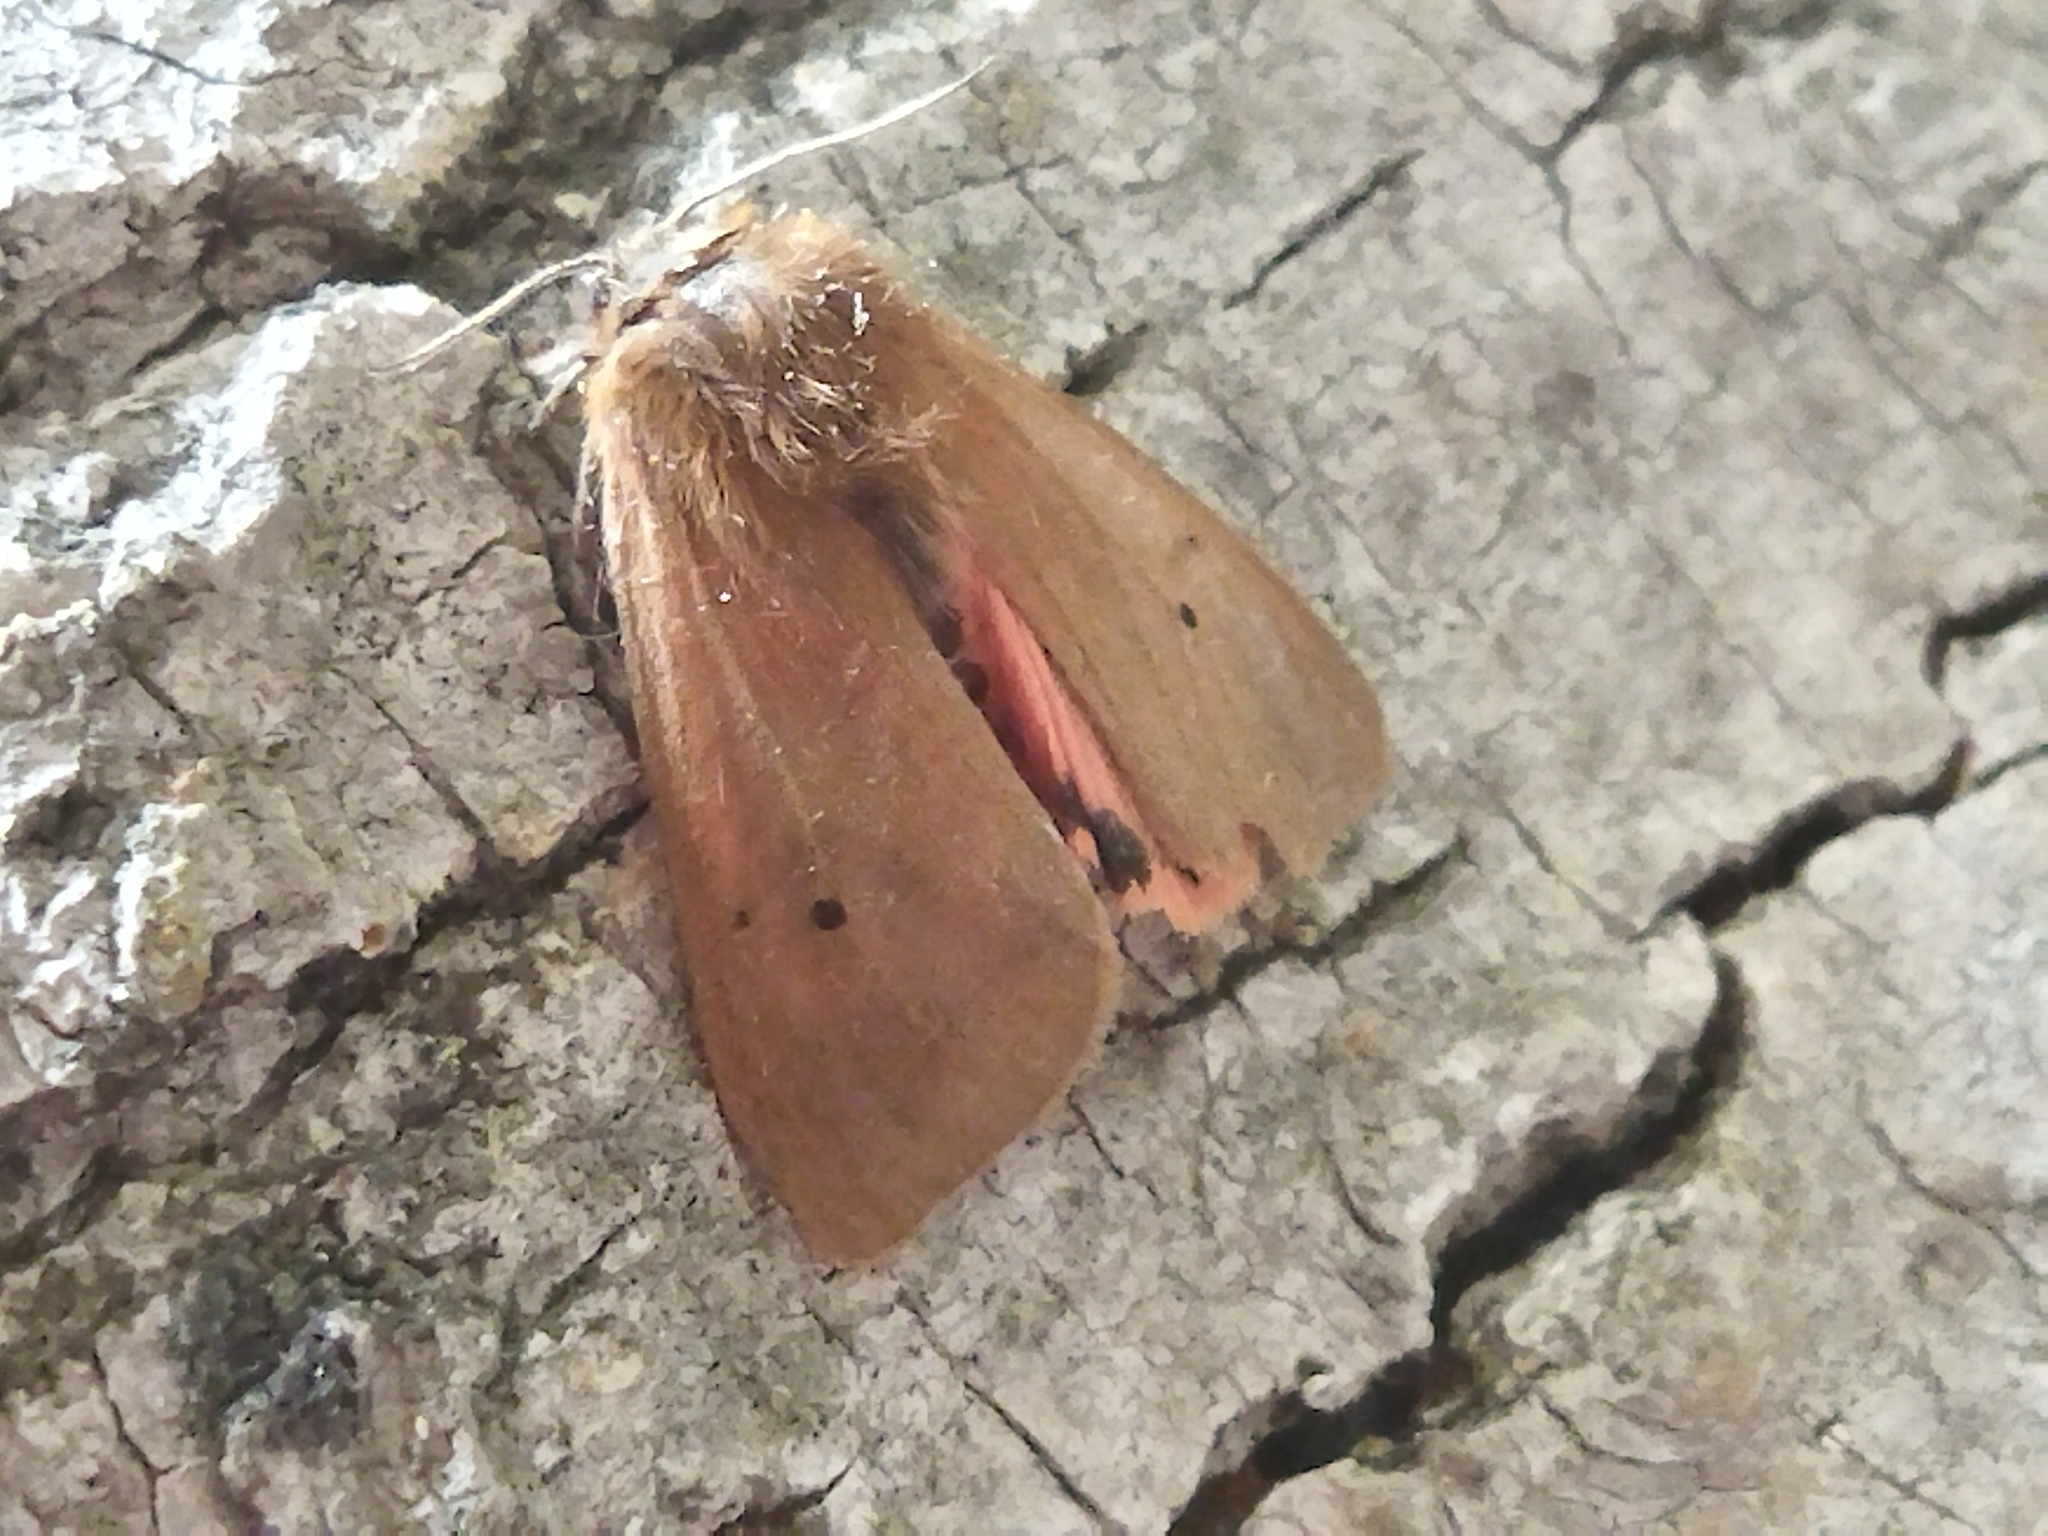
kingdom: Animalia
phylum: Arthropoda
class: Insecta
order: Lepidoptera
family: Erebidae
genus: Phragmatobia
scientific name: Phragmatobia fuliginosa
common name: Ruby tiger
